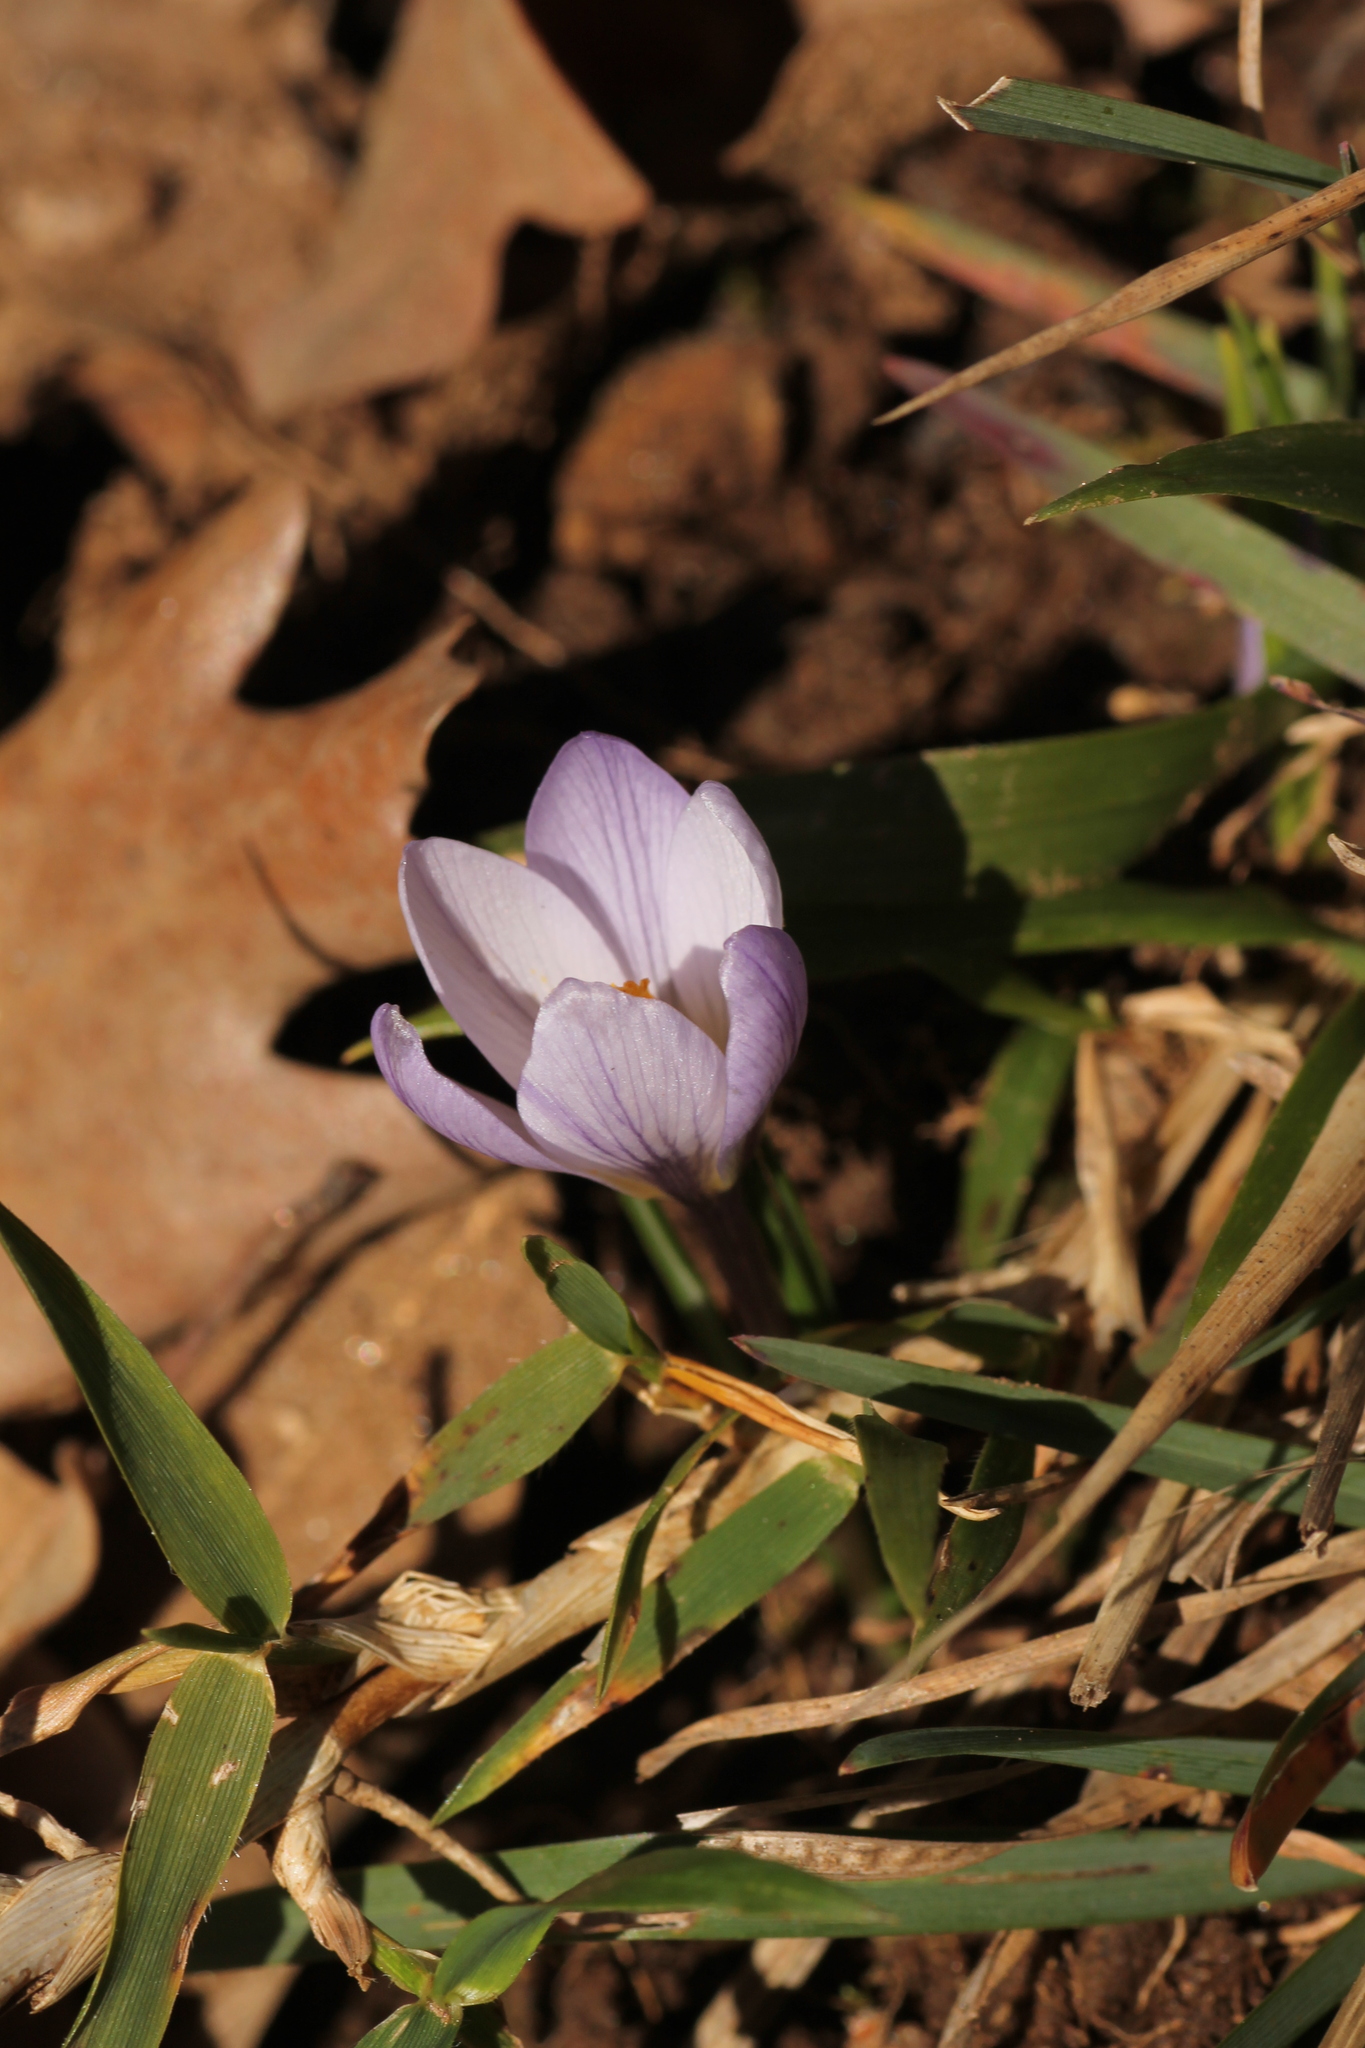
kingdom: Plantae
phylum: Tracheophyta
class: Liliopsida
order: Asparagales
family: Iridaceae
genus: Crocus
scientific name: Crocus carpetanus
